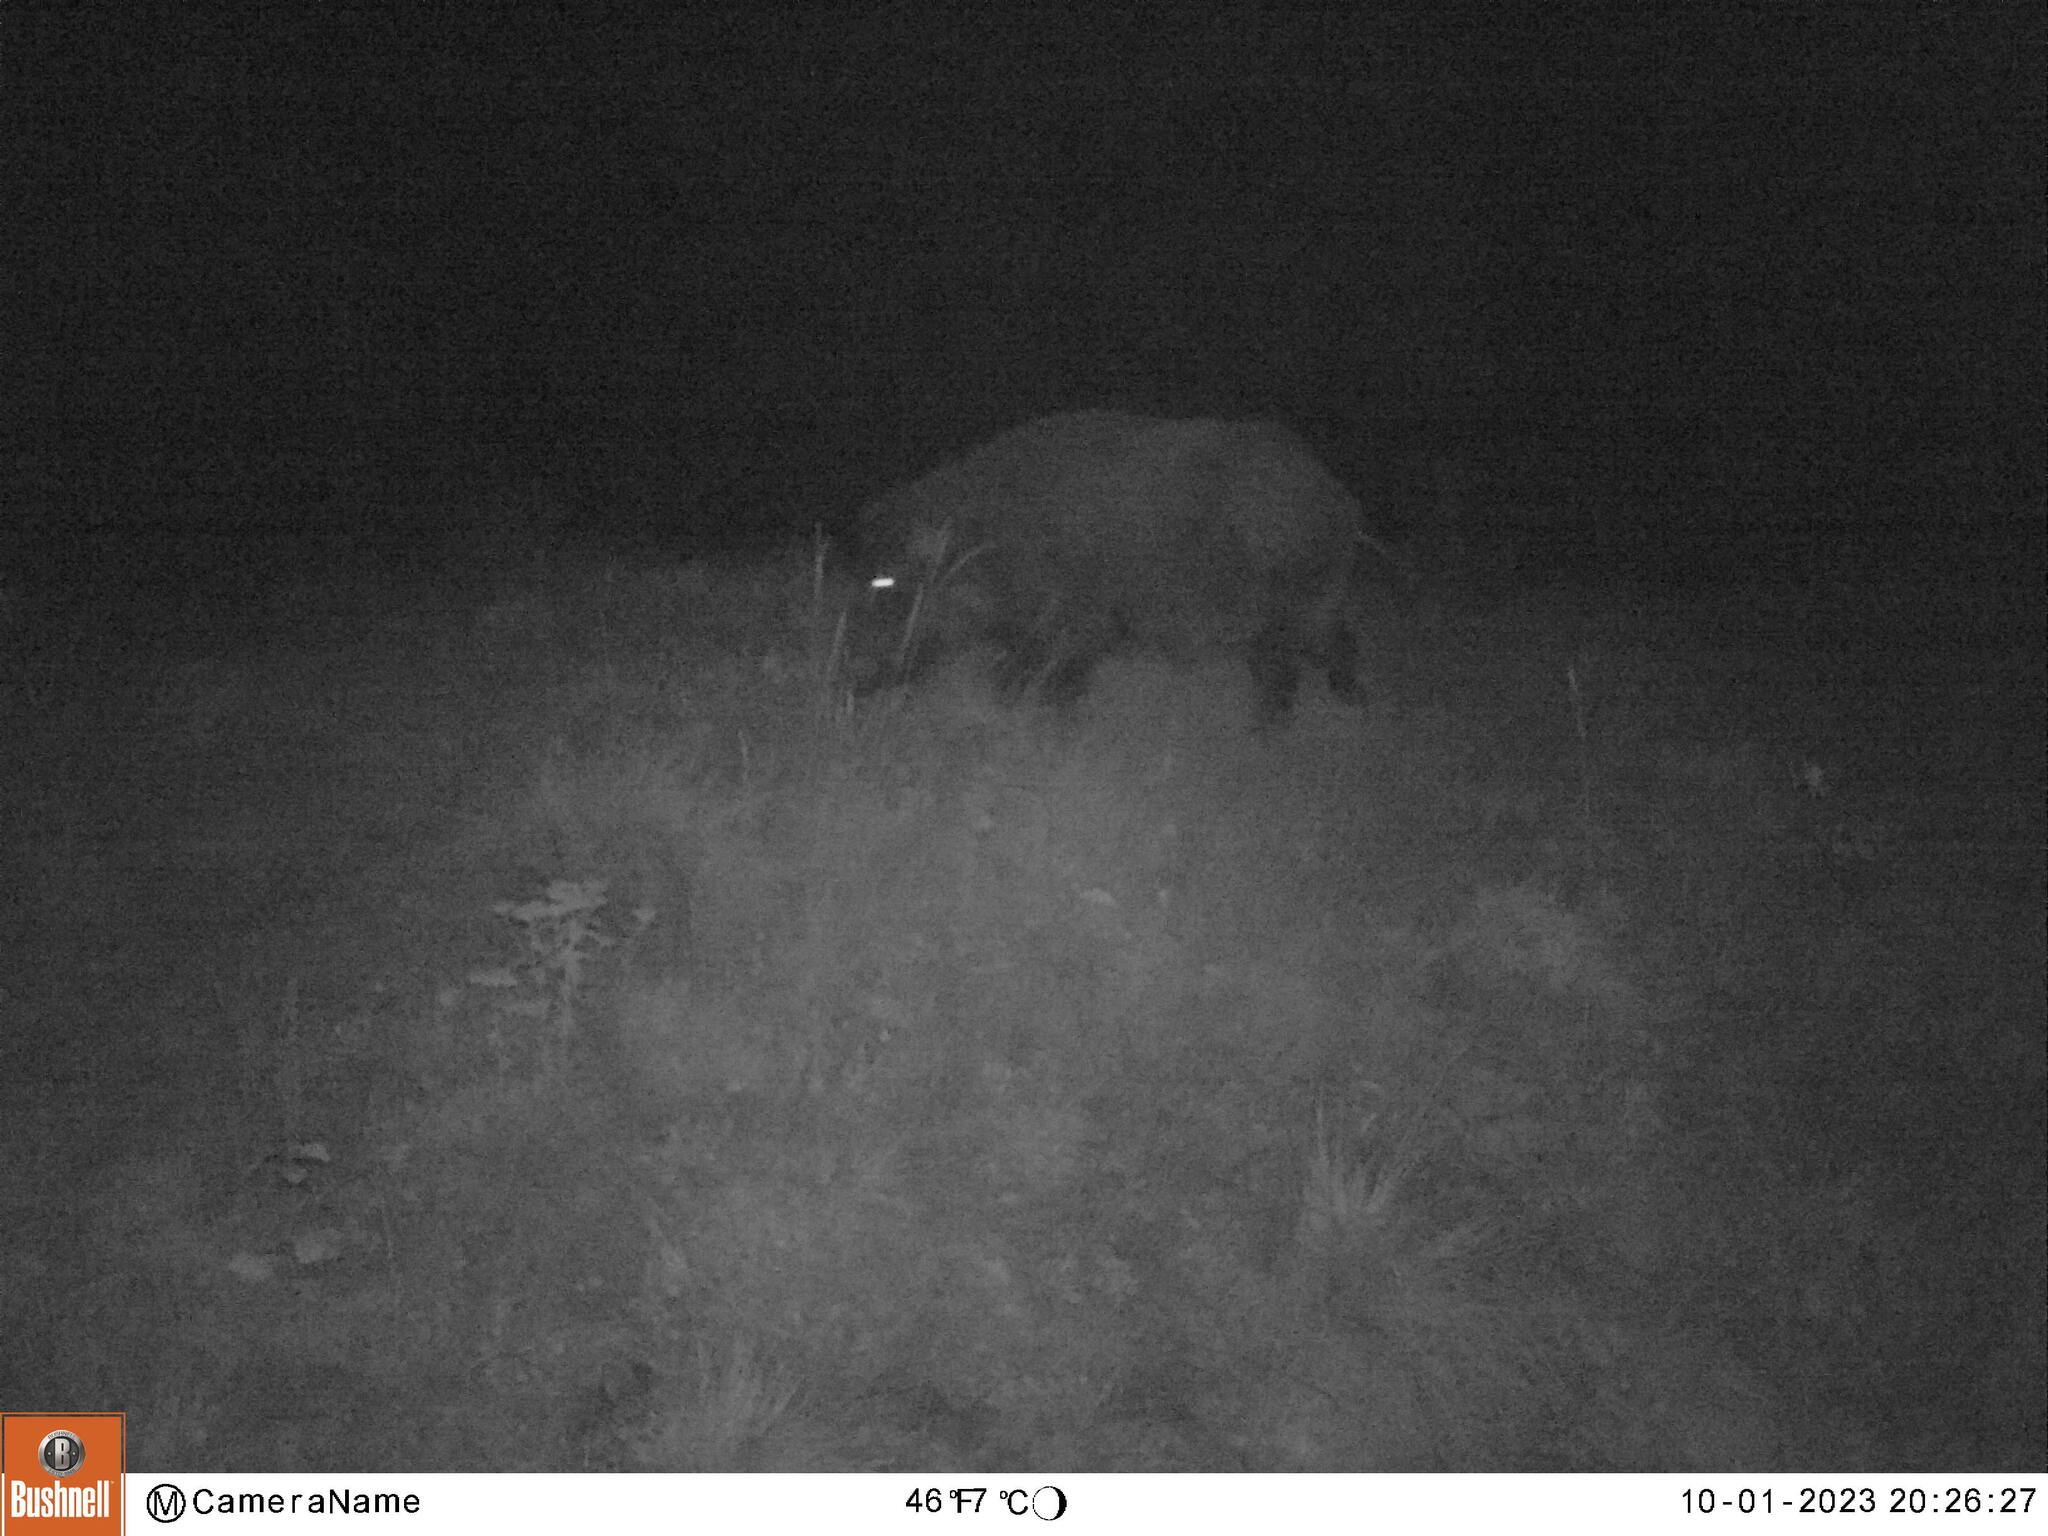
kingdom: Animalia
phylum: Chordata
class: Mammalia
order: Artiodactyla
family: Suidae
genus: Sus
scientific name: Sus scrofa
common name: Wild boar
